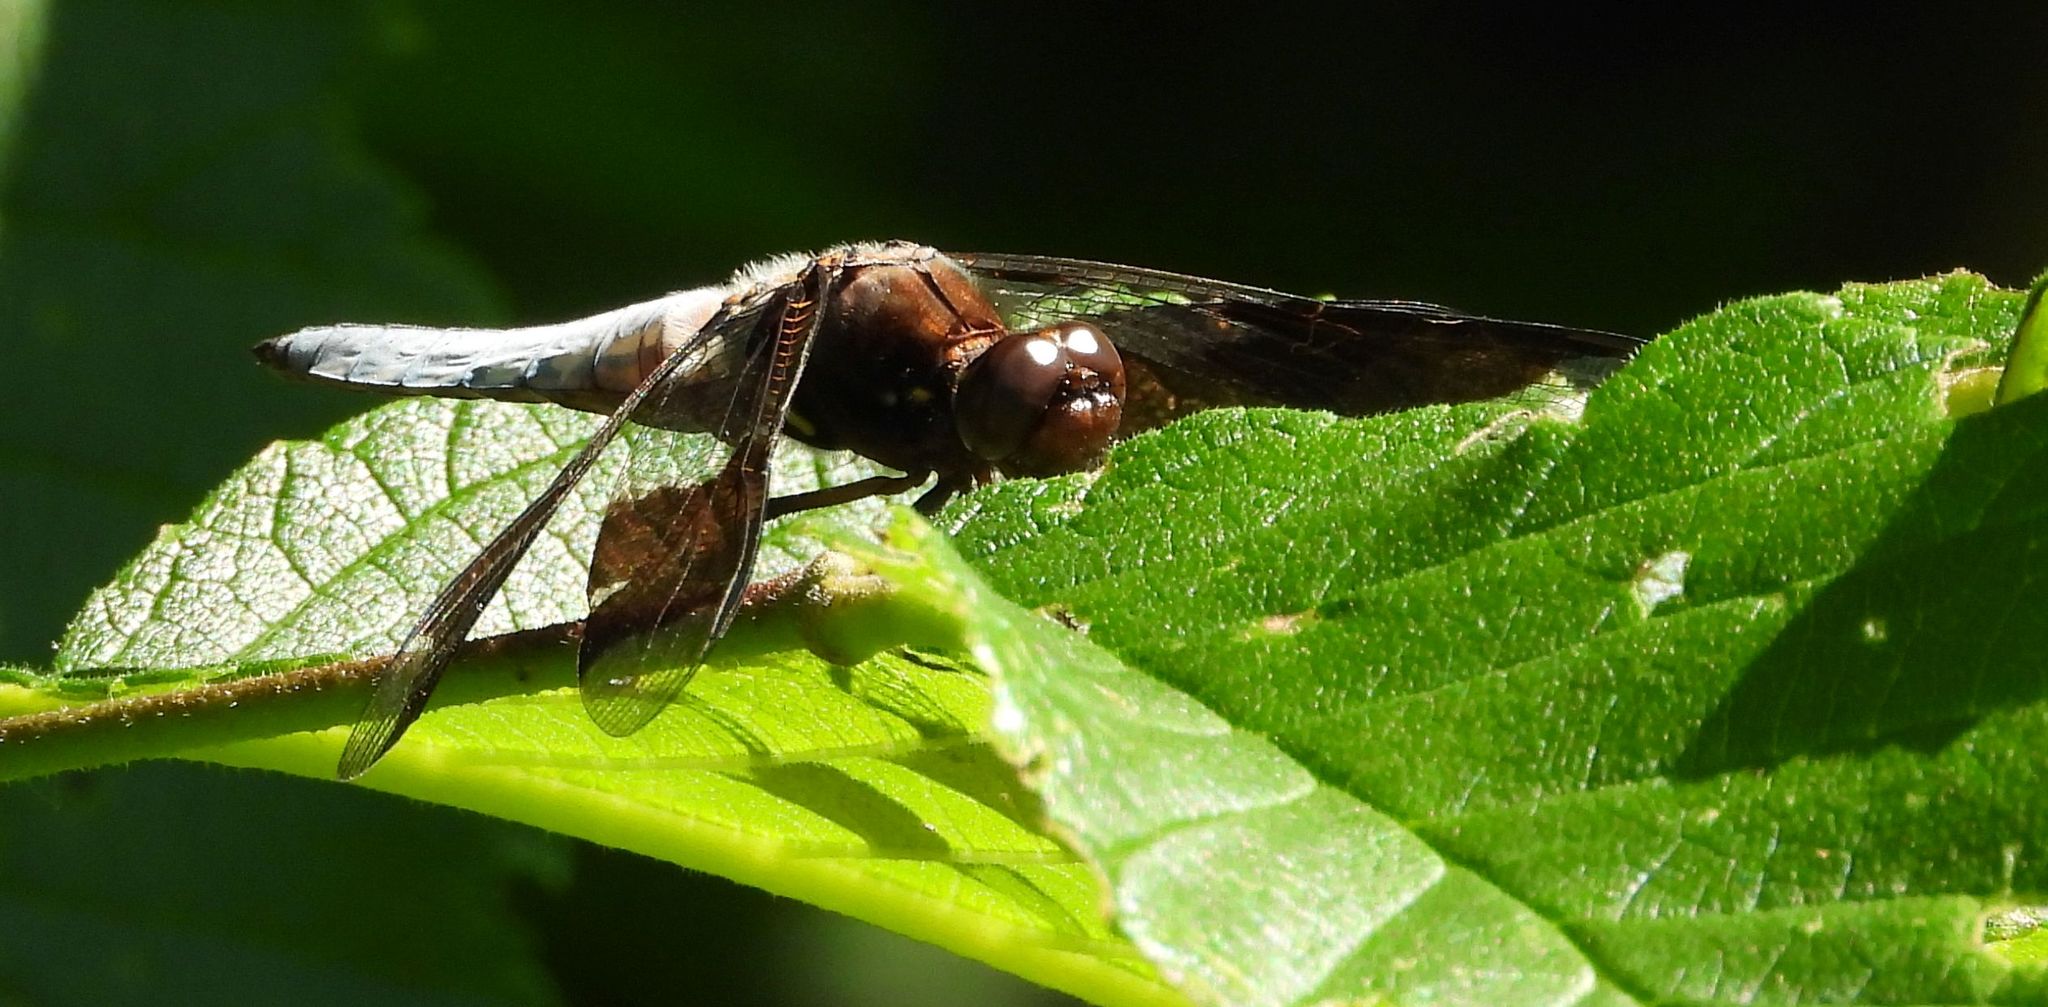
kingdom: Animalia
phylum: Arthropoda
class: Insecta
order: Odonata
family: Libellulidae
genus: Plathemis
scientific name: Plathemis lydia
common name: Common whitetail
